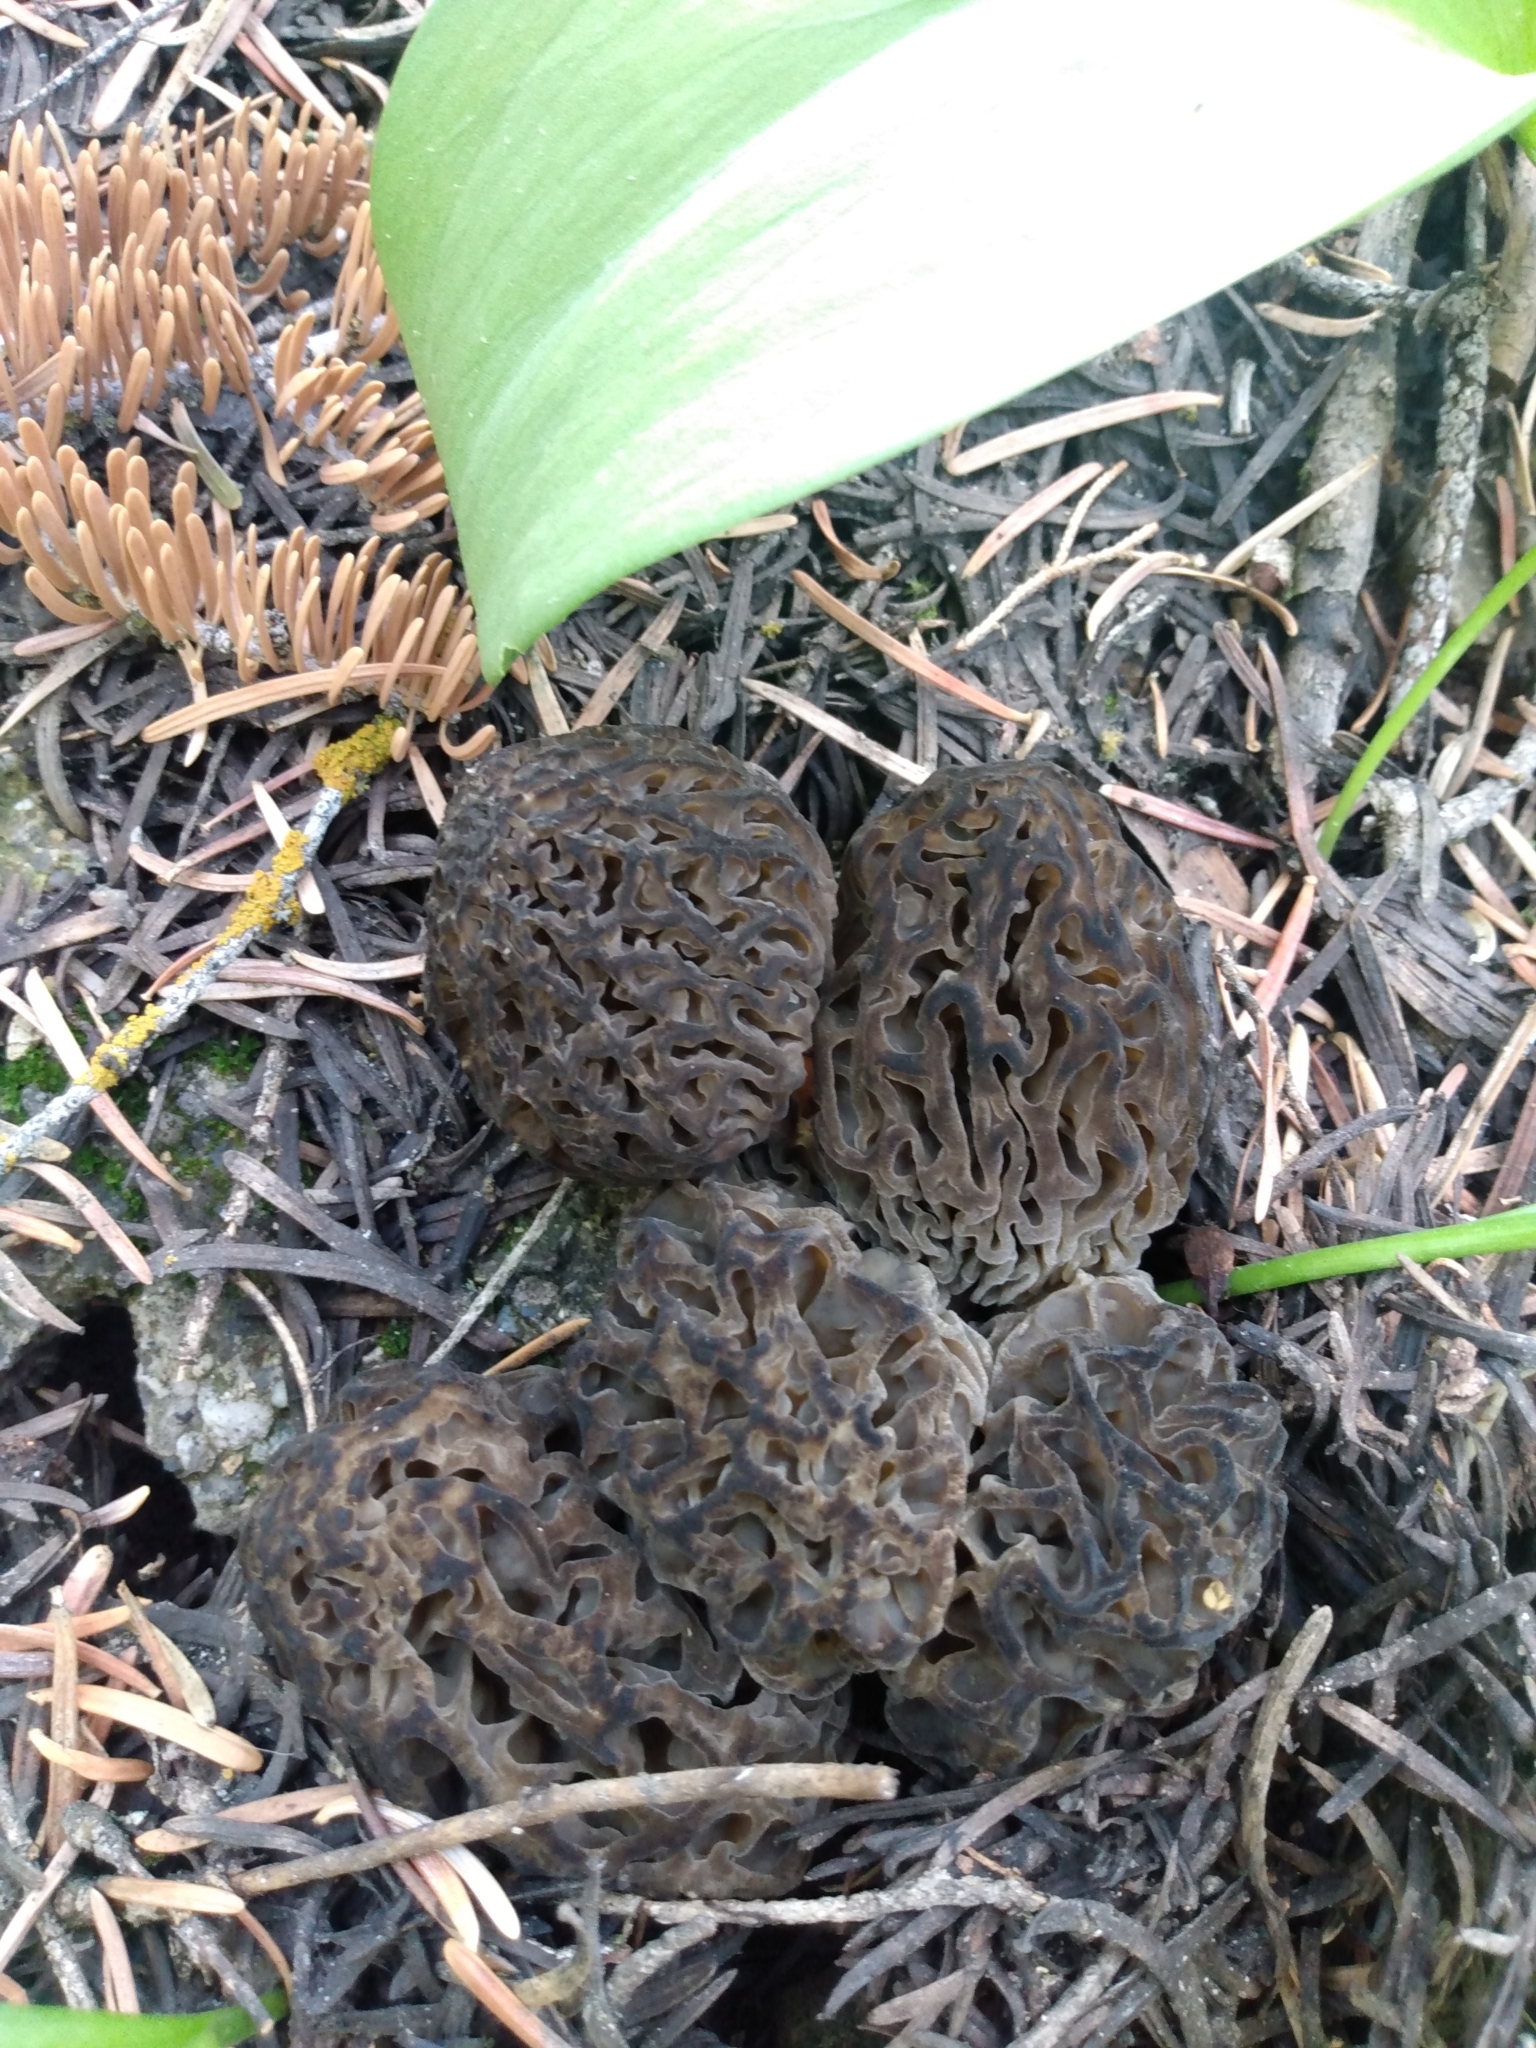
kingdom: Fungi
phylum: Ascomycota
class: Pezizomycetes
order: Pezizales
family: Morchellaceae
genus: Morchella
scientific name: Morchella snyderi
